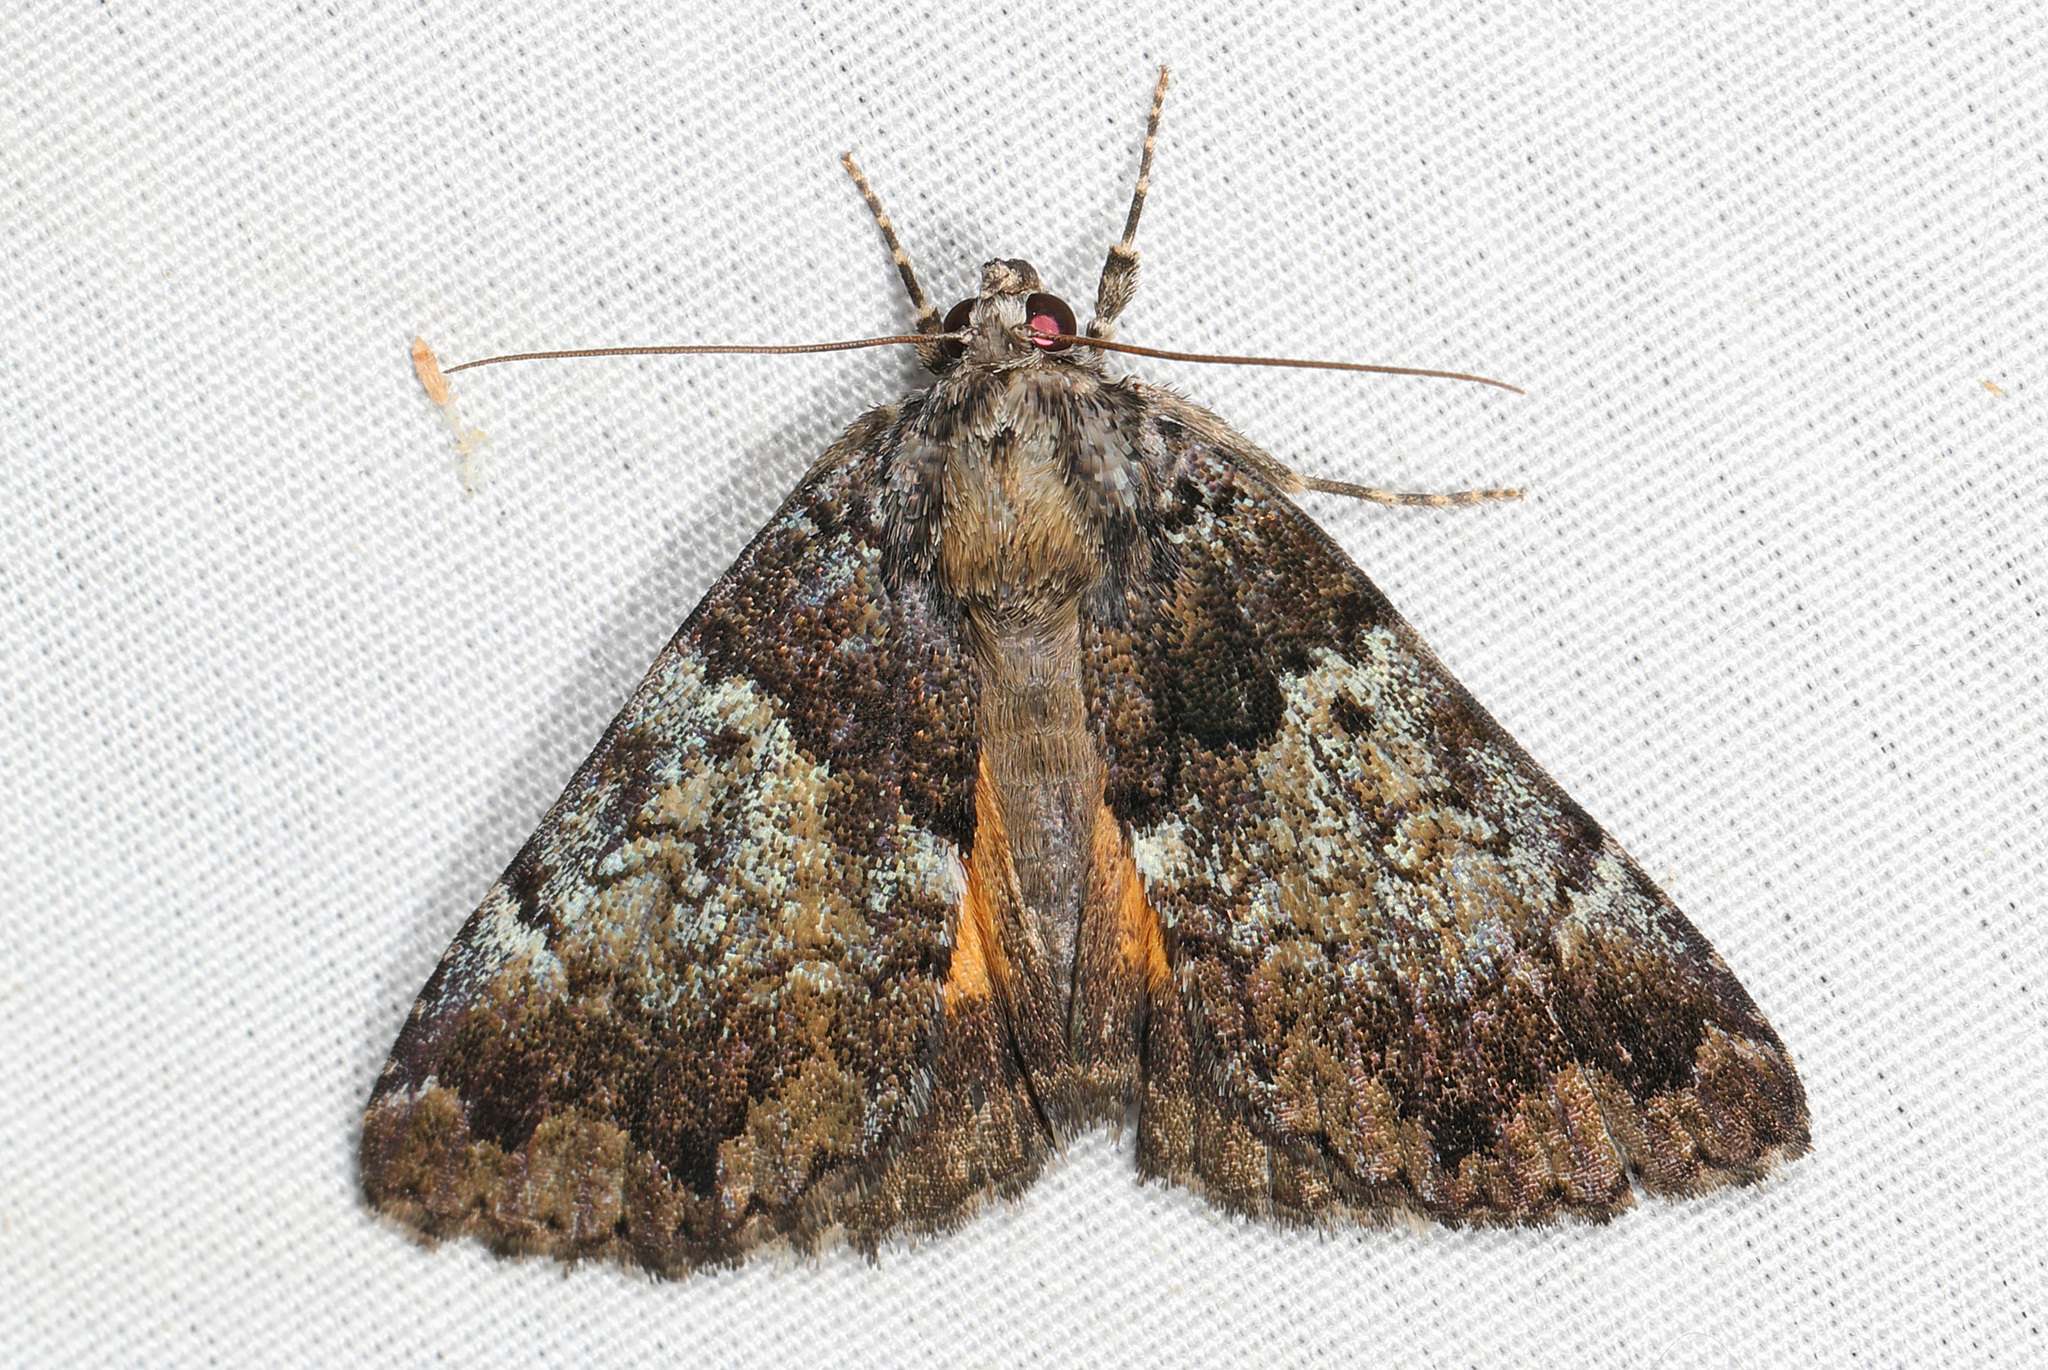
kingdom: Animalia
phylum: Arthropoda
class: Insecta
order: Lepidoptera
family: Erebidae
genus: Allotria
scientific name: Allotria elonympha
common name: False underwing
